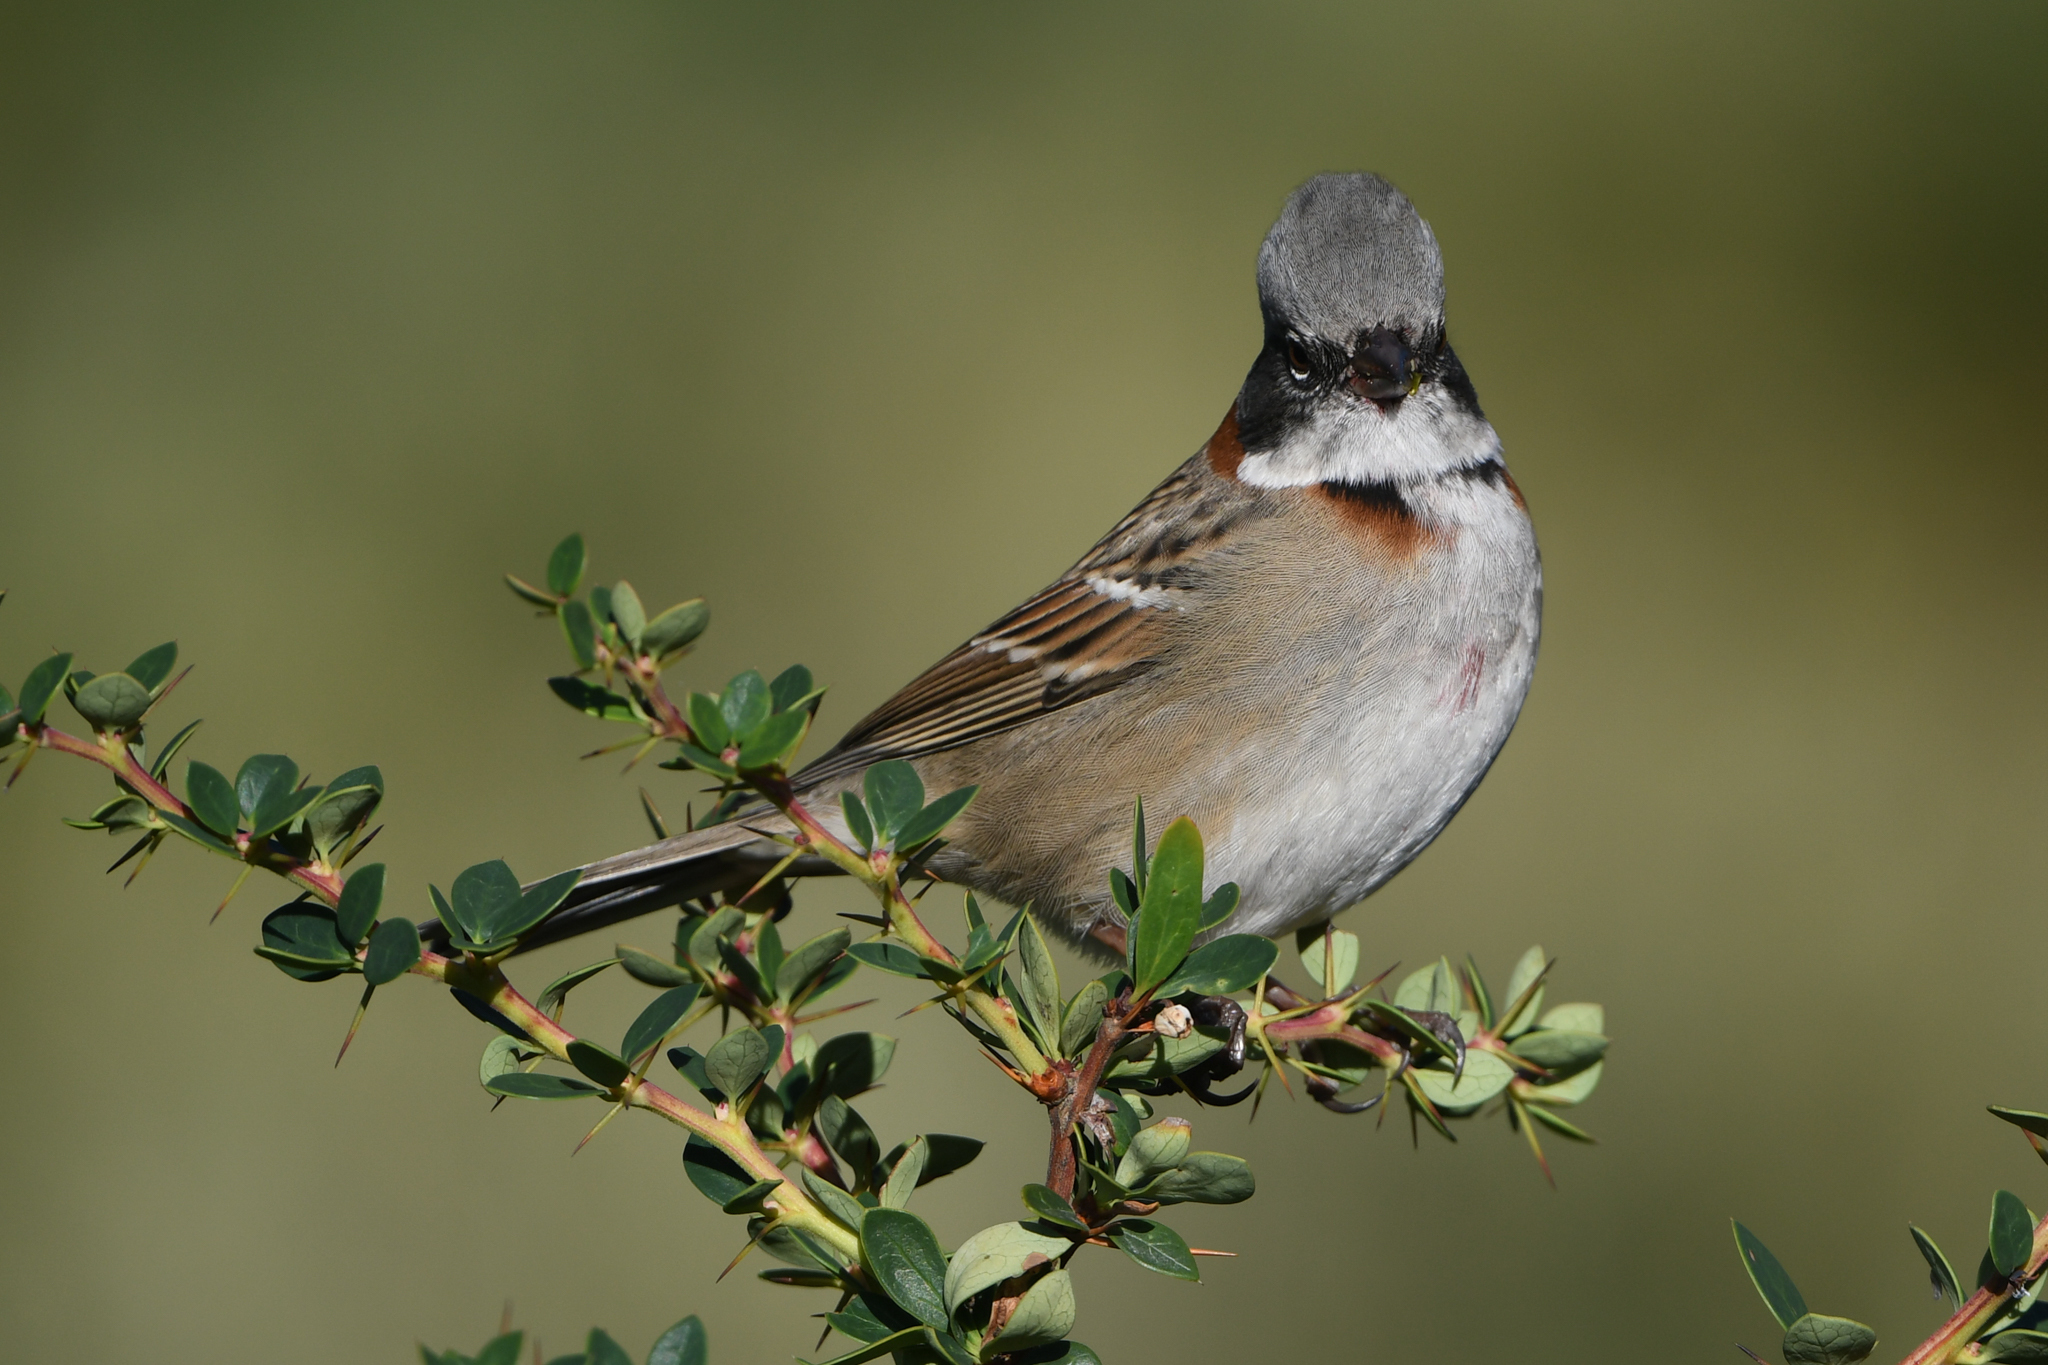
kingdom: Animalia
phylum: Chordata
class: Aves
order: Passeriformes
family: Passerellidae
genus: Zonotrichia
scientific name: Zonotrichia capensis
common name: Rufous-collared sparrow
